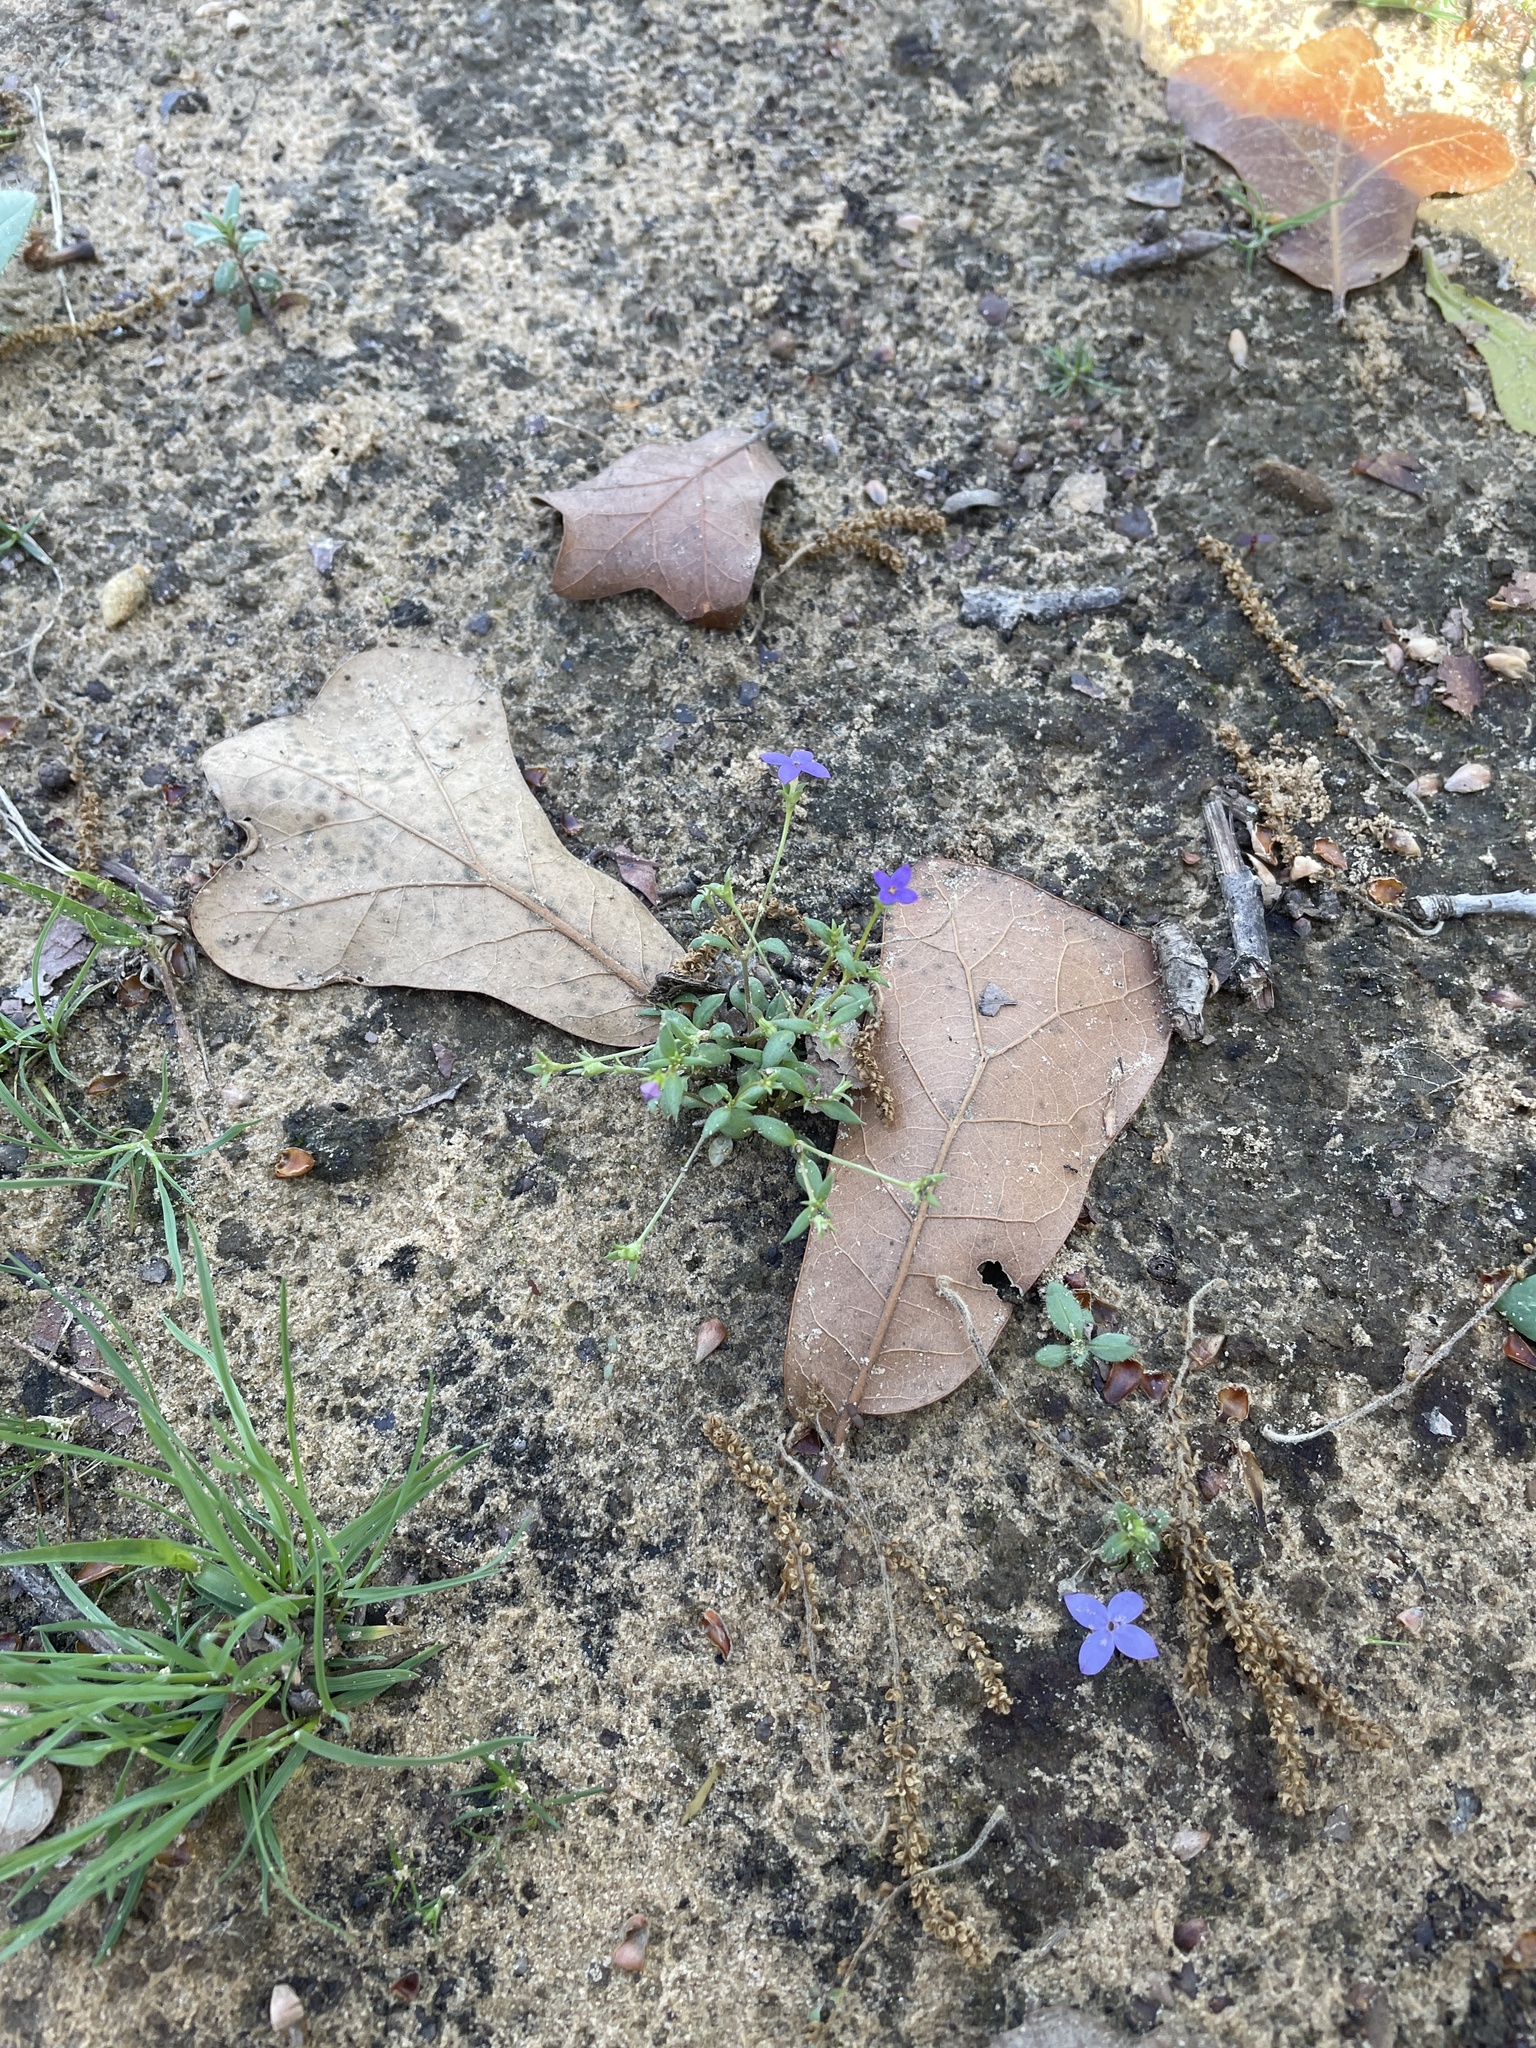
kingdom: Plantae
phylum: Tracheophyta
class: Magnoliopsida
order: Gentianales
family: Rubiaceae
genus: Houstonia
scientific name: Houstonia pusilla
